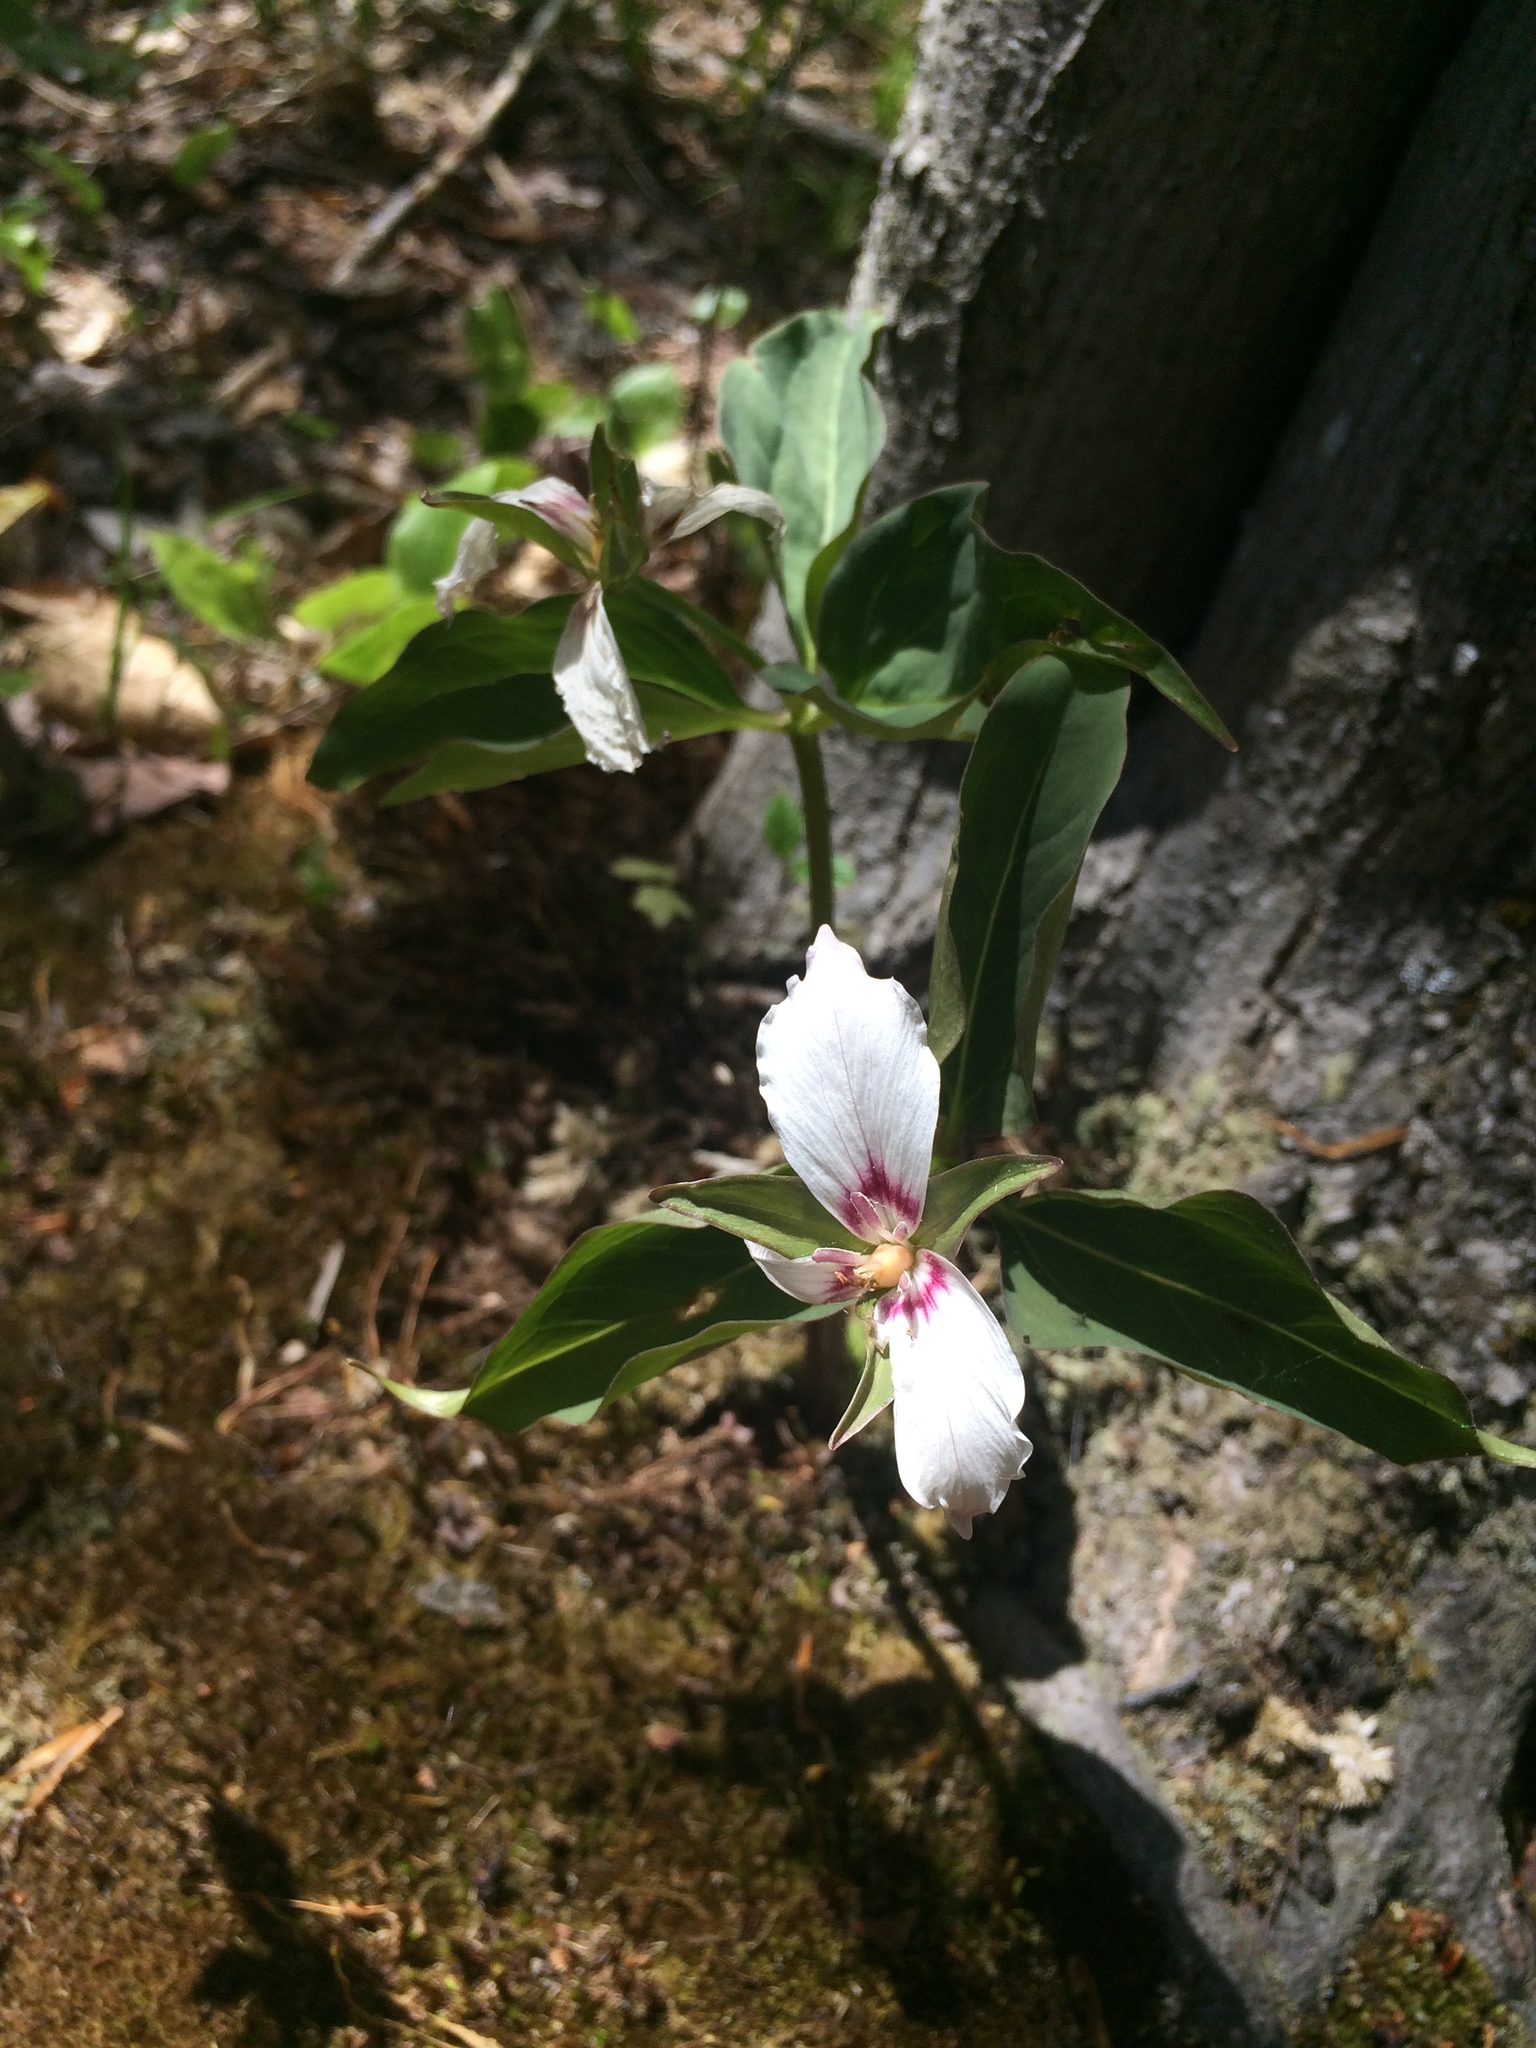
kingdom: Plantae
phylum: Tracheophyta
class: Liliopsida
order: Liliales
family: Melanthiaceae
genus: Trillium
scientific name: Trillium undulatum
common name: Paint trillium
